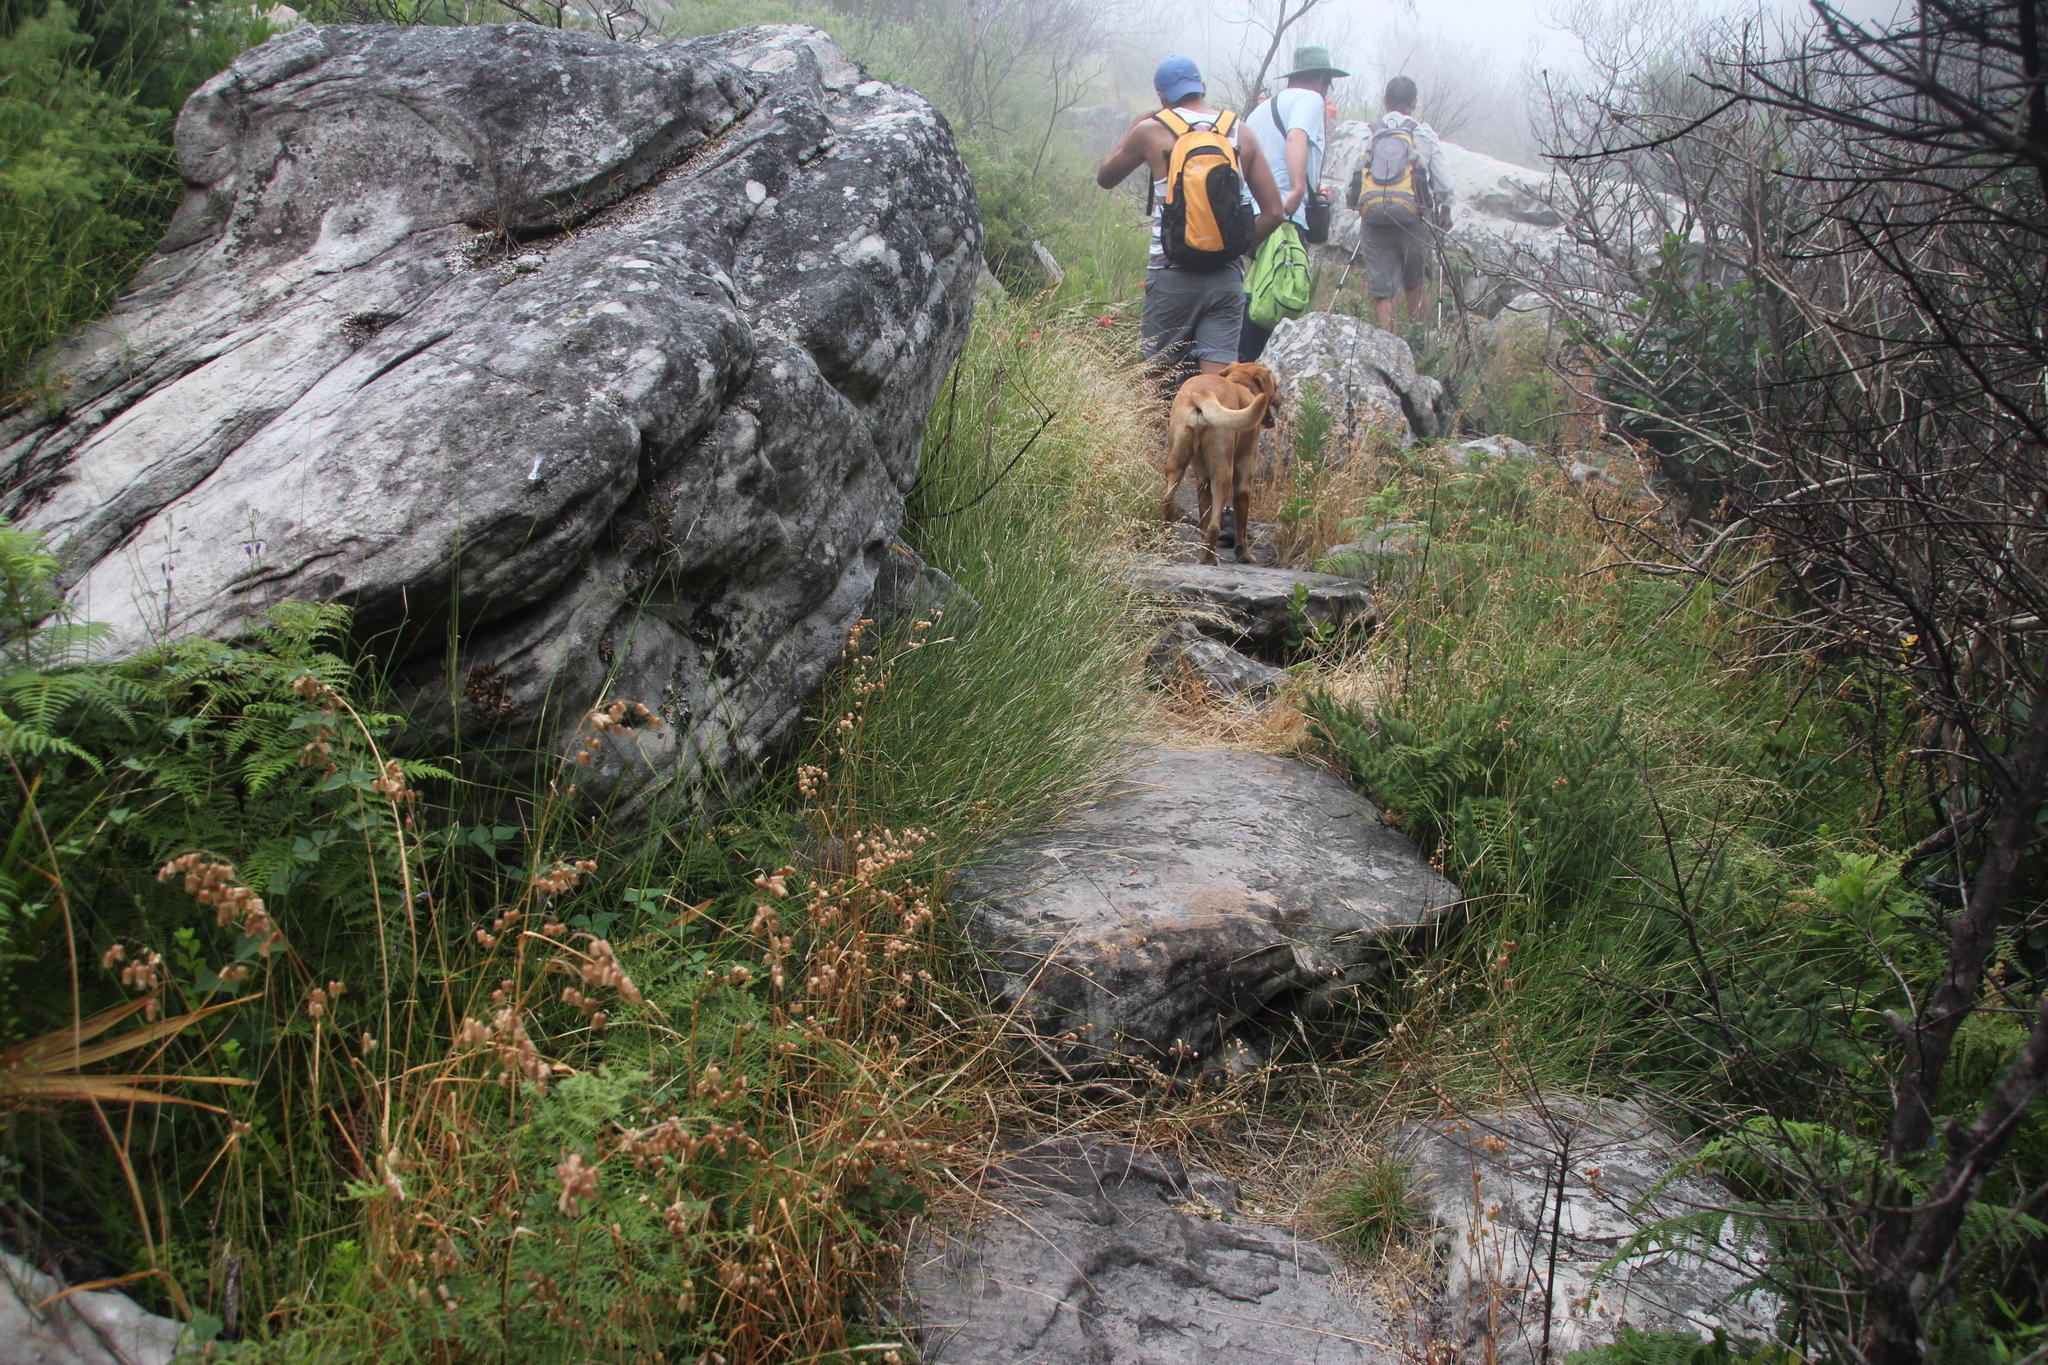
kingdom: Plantae
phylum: Tracheophyta
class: Liliopsida
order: Poales
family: Poaceae
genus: Briza
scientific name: Briza maxima
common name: Big quakinggrass
